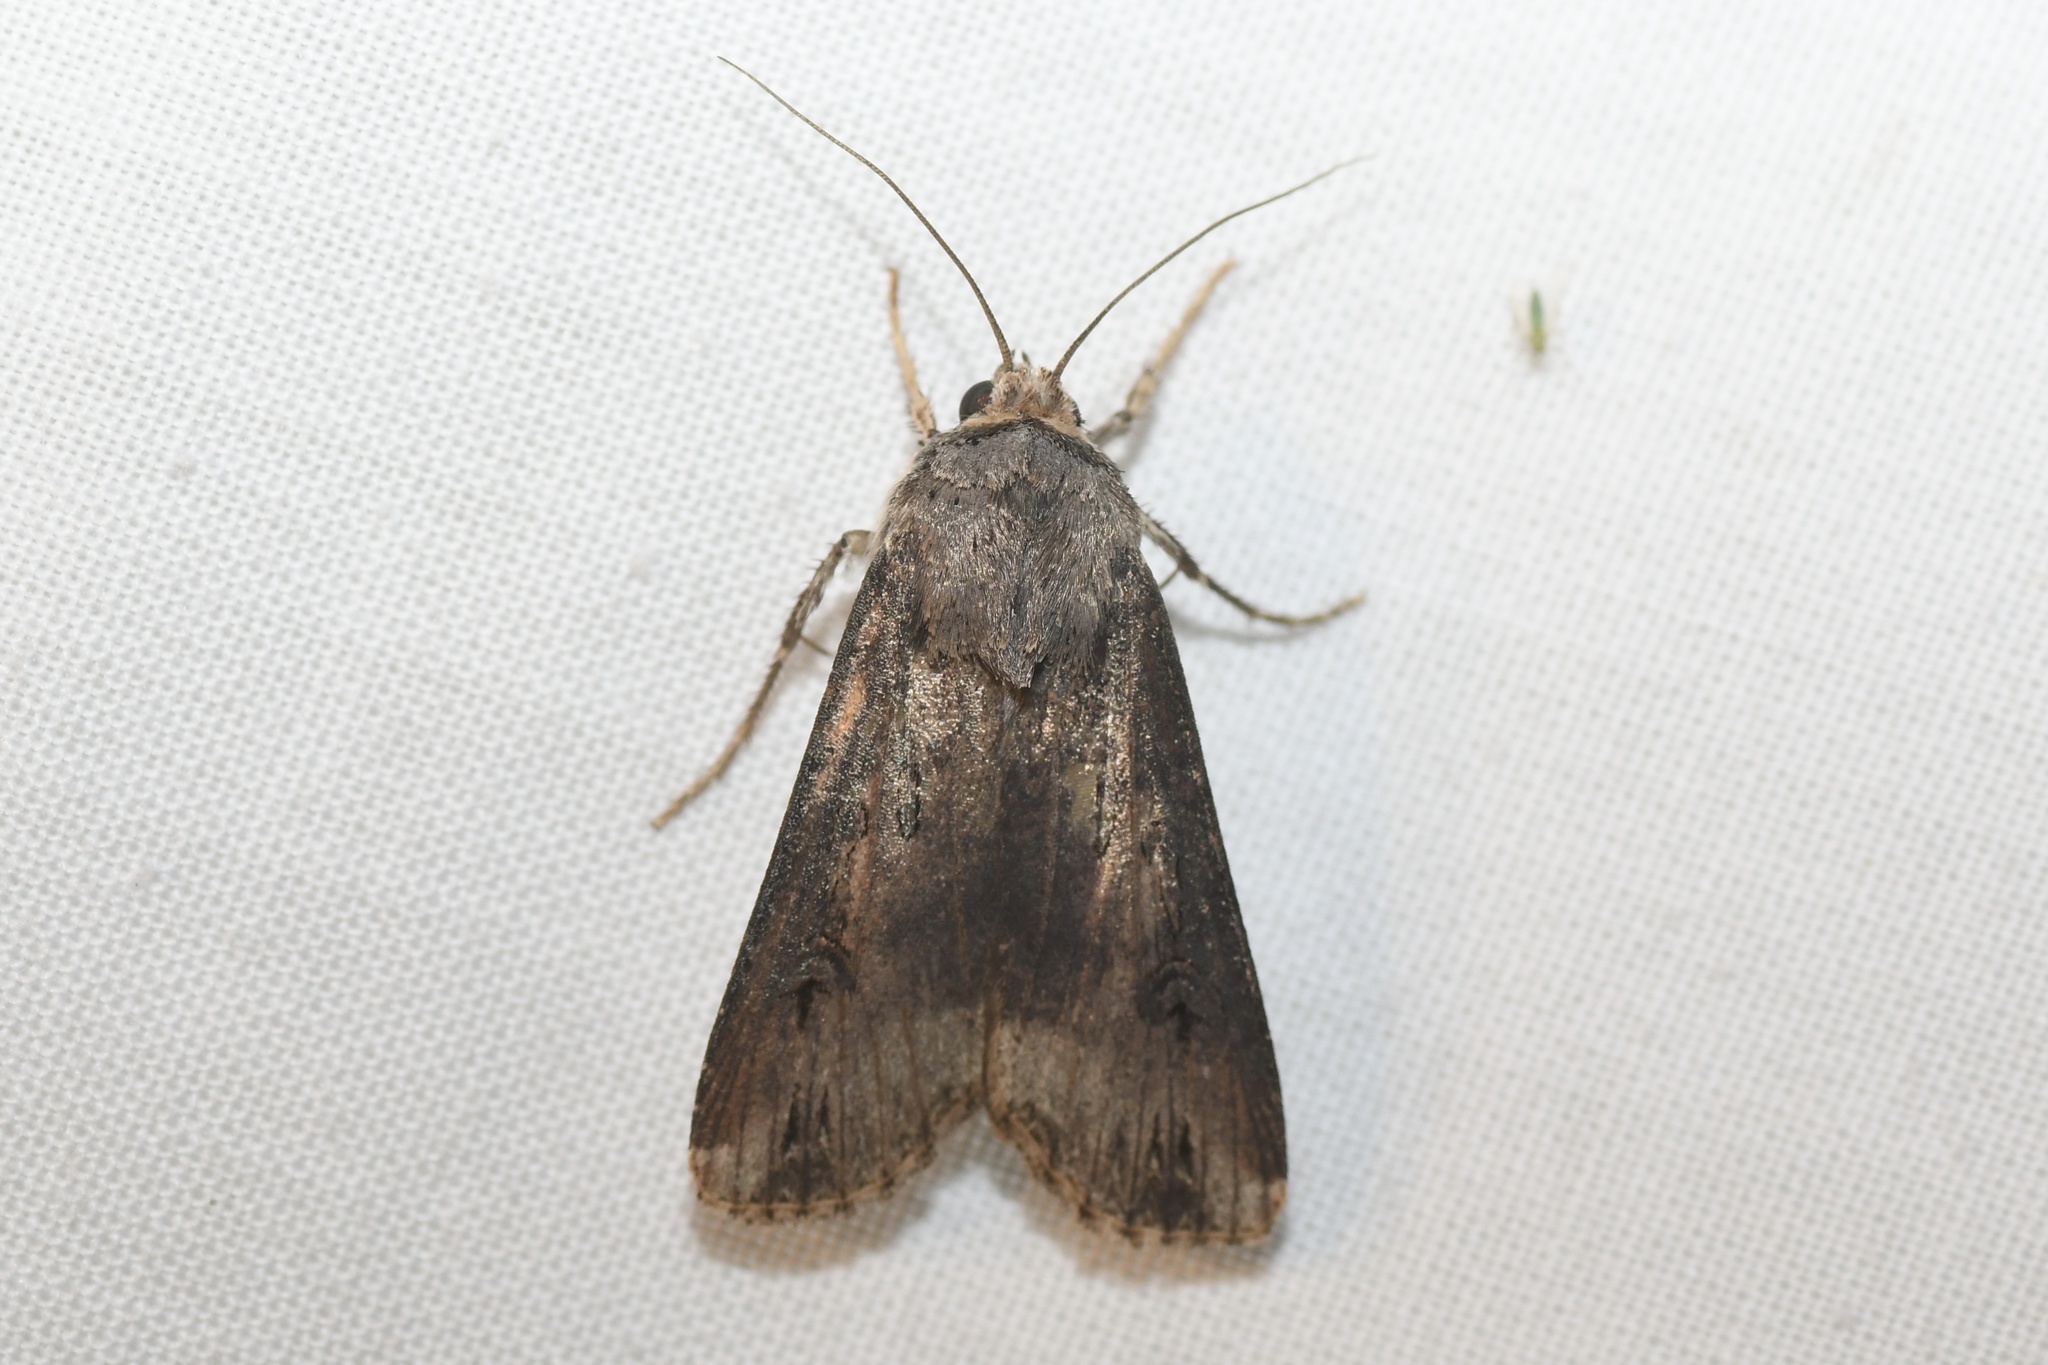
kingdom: Animalia
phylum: Arthropoda
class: Insecta
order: Lepidoptera
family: Noctuidae
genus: Agrotis
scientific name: Agrotis ipsilon
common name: Dark sword-grass
